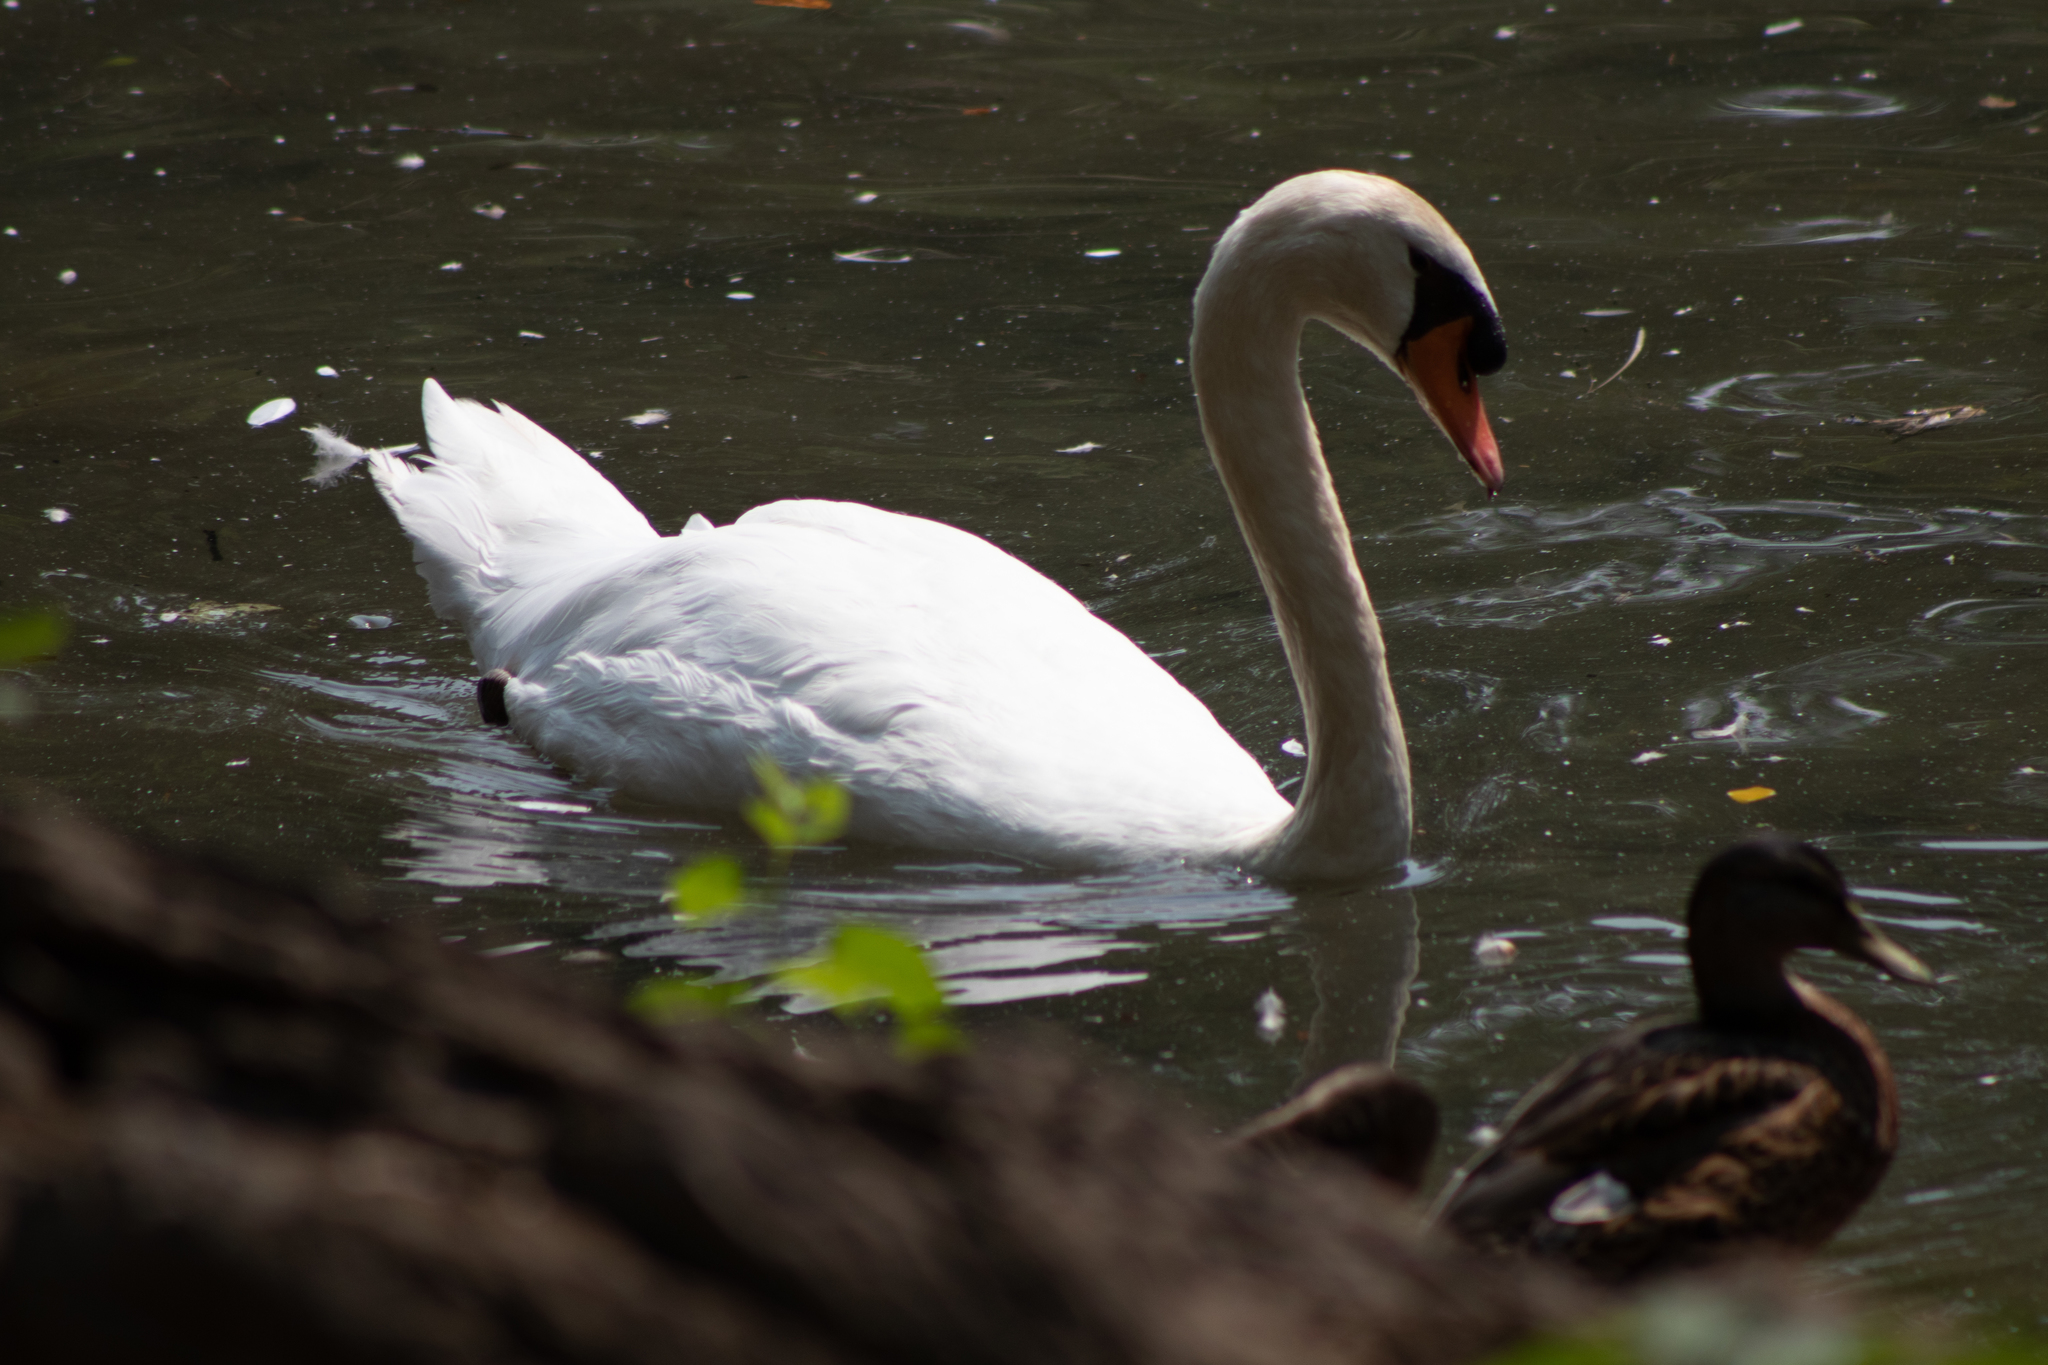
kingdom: Animalia
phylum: Chordata
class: Aves
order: Anseriformes
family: Anatidae
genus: Cygnus
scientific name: Cygnus olor
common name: Mute swan
